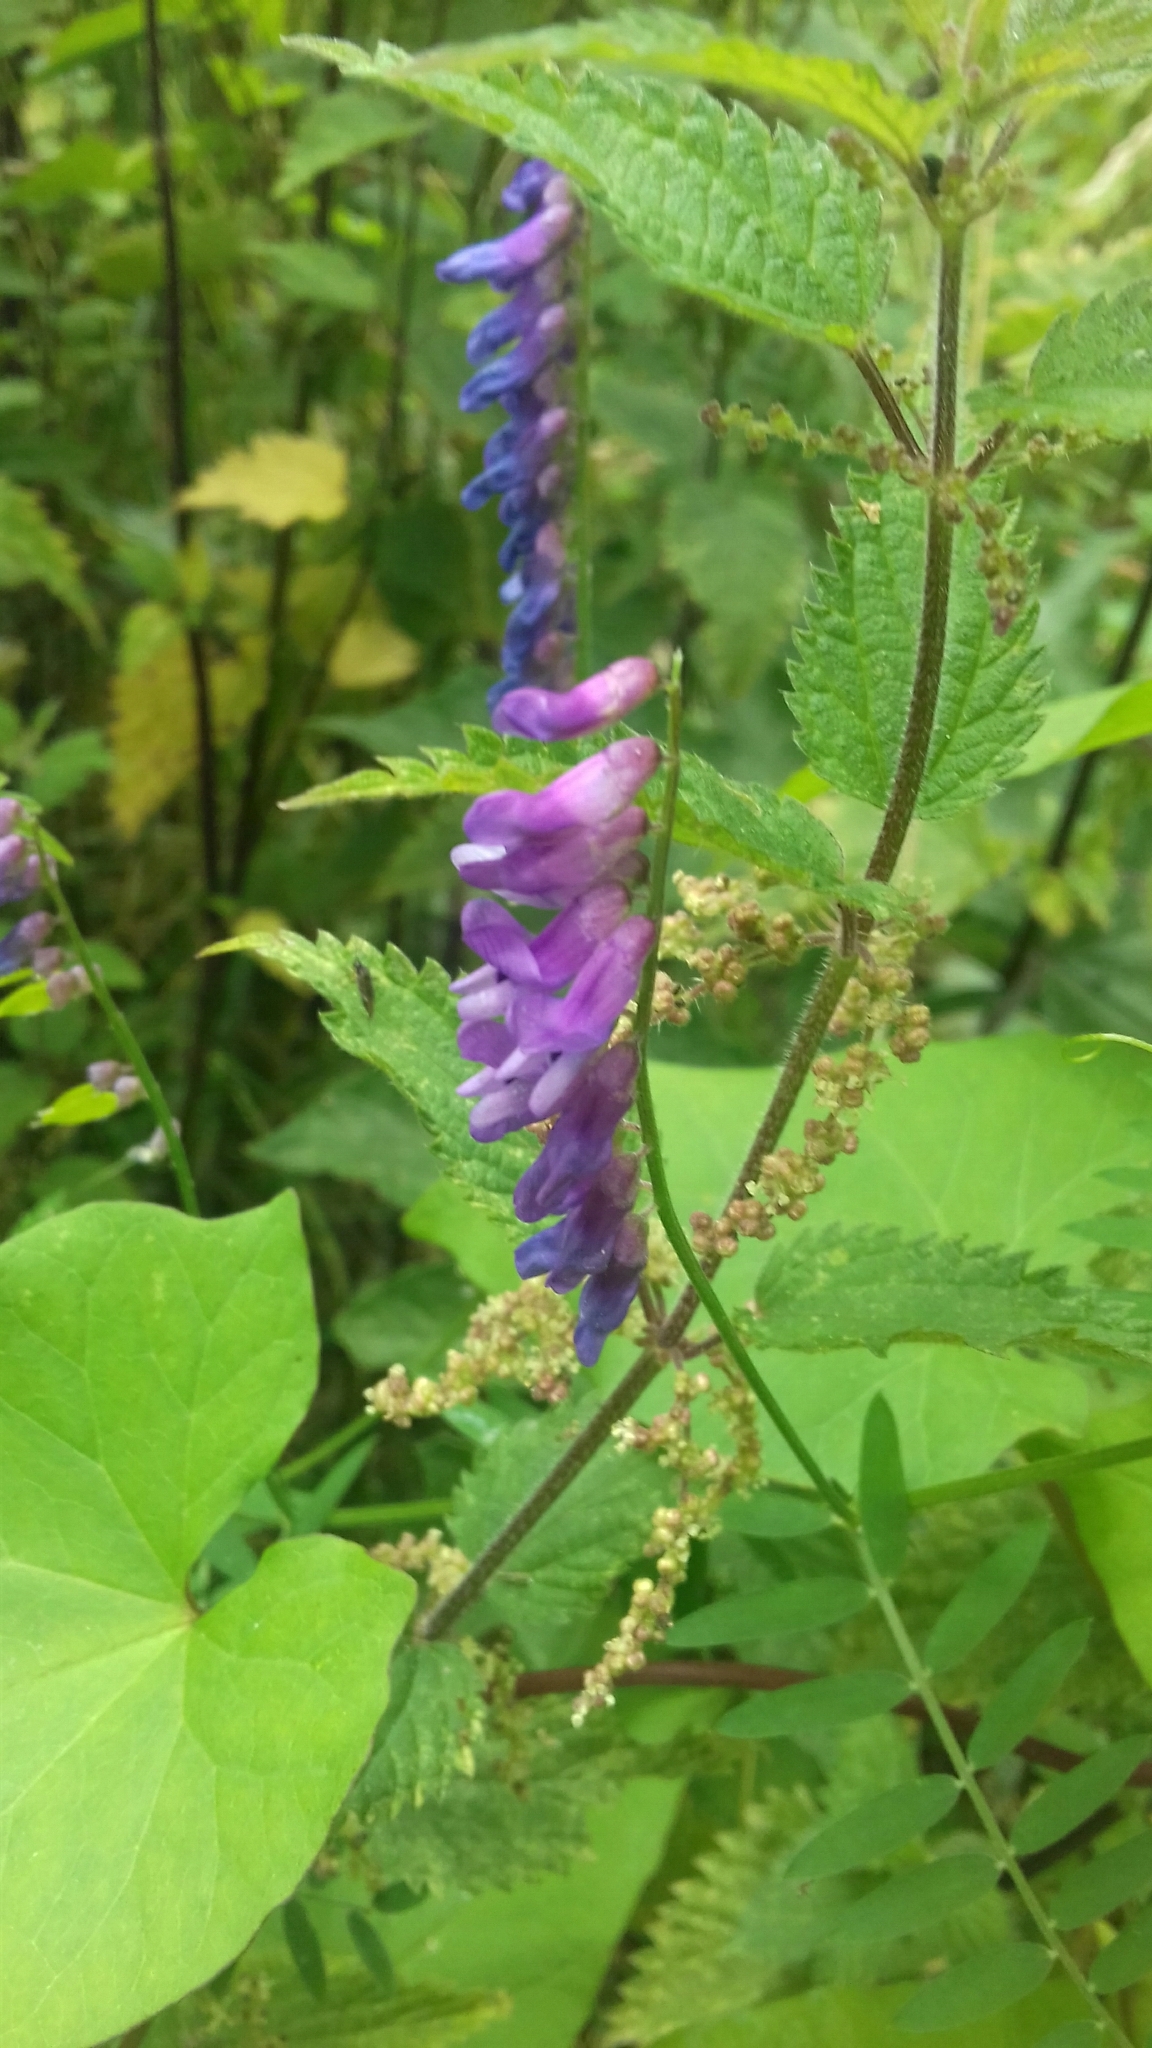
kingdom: Plantae
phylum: Tracheophyta
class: Magnoliopsida
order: Fabales
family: Fabaceae
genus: Vicia
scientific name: Vicia cracca
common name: Bird vetch
